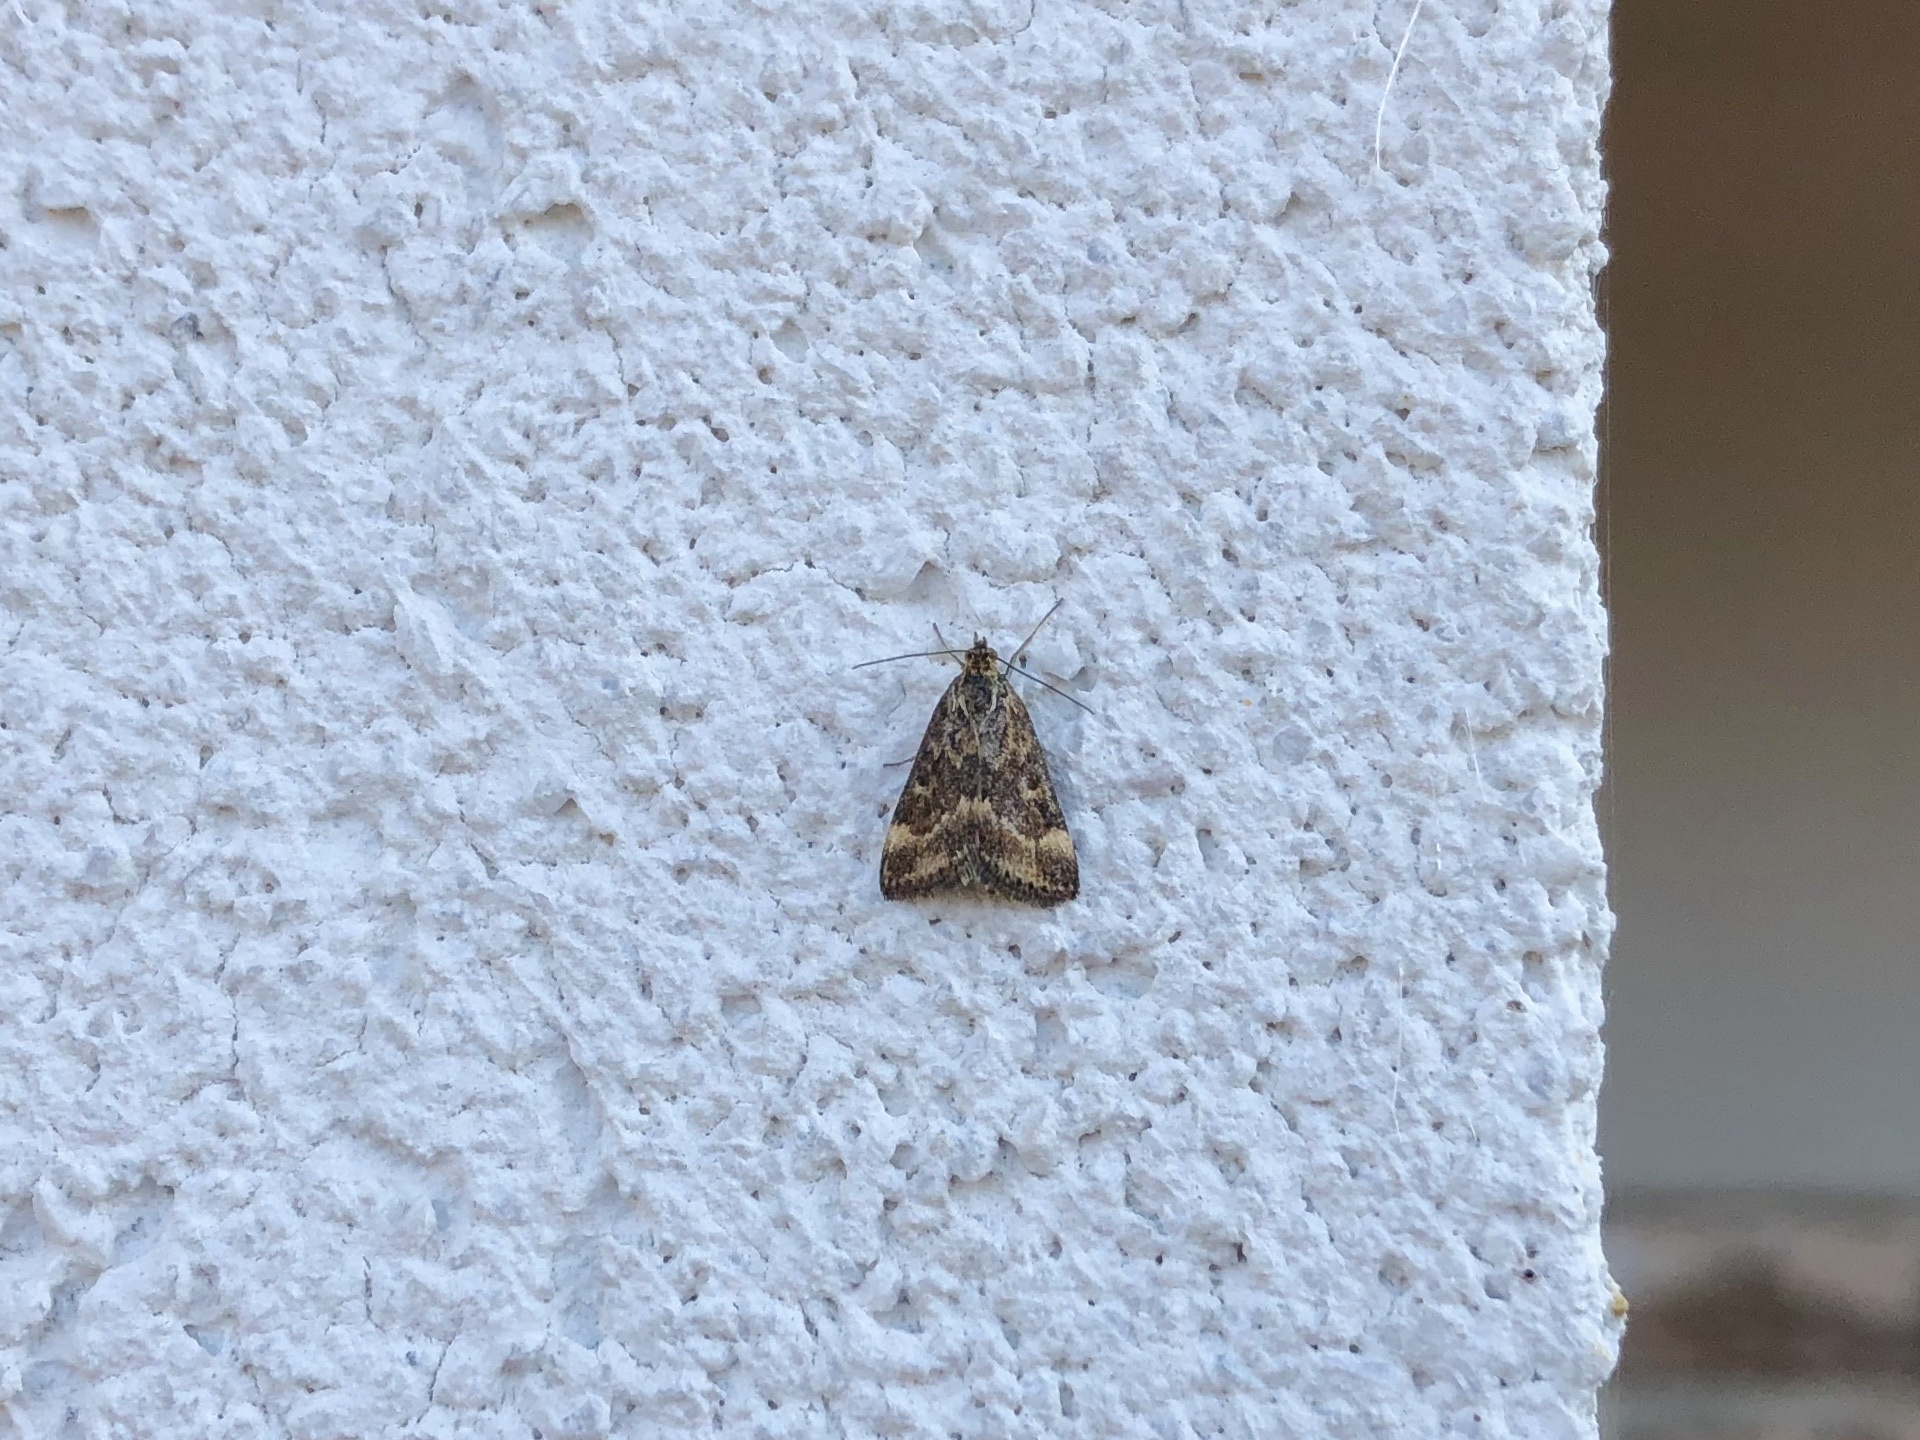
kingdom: Animalia
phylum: Arthropoda
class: Insecta
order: Lepidoptera
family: Crambidae
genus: Pyrausta
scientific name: Pyrausta despicata
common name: Straw-barred pearl
